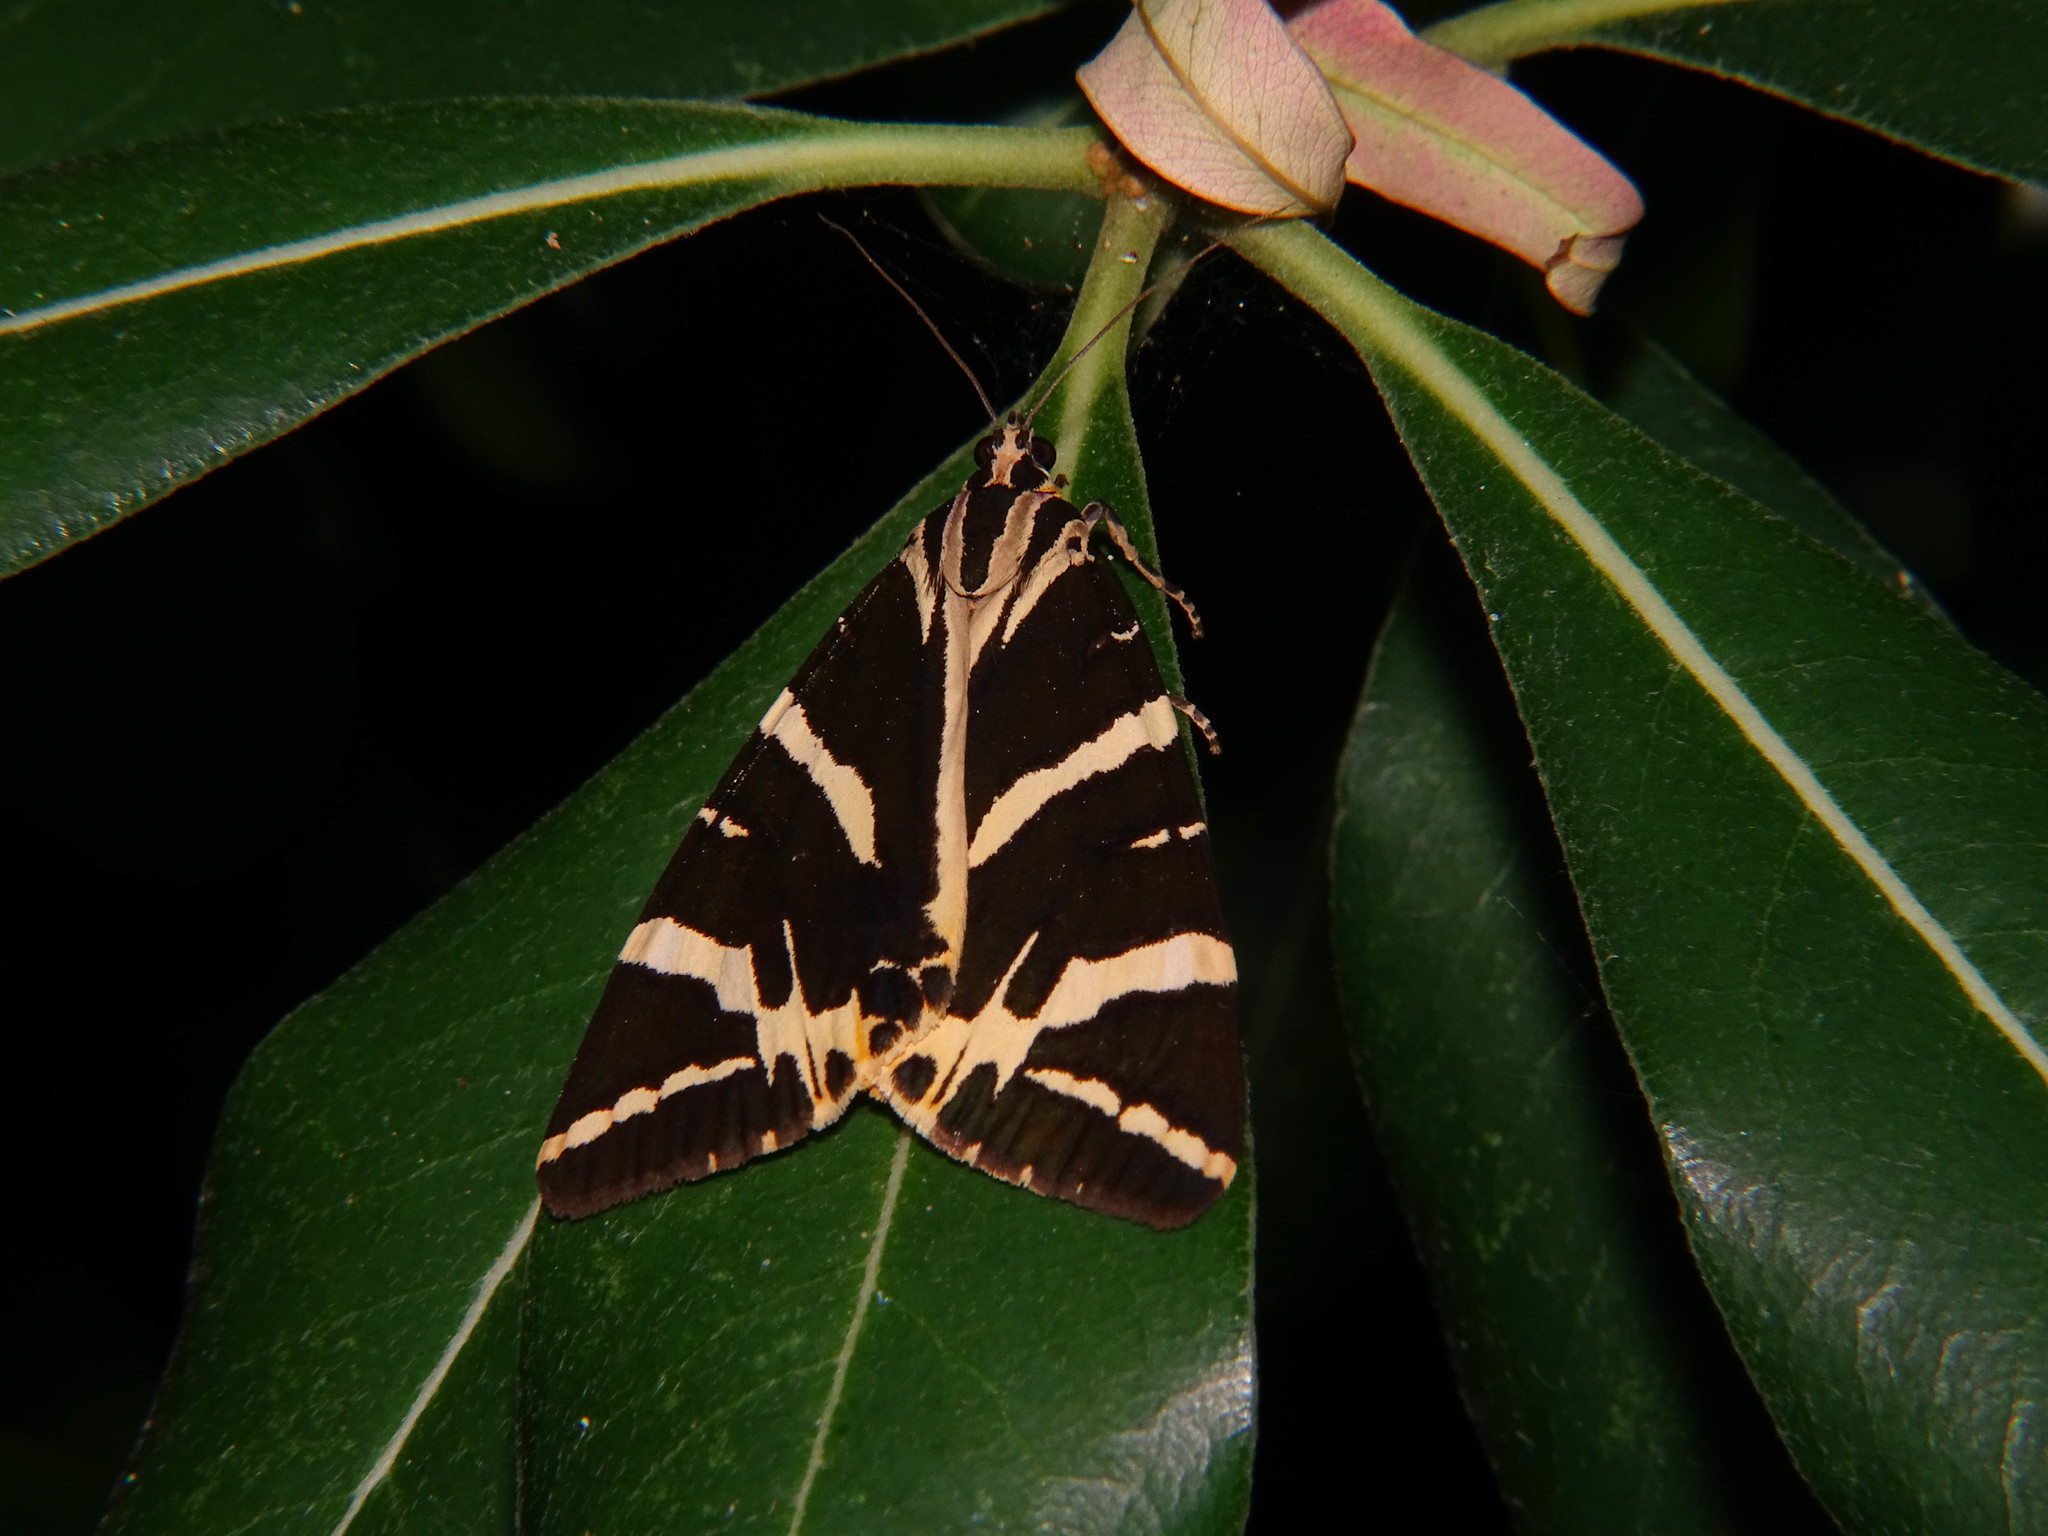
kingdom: Animalia
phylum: Arthropoda
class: Insecta
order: Lepidoptera
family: Erebidae
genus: Euplagia
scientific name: Euplagia quadripunctaria
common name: Jersey tiger
